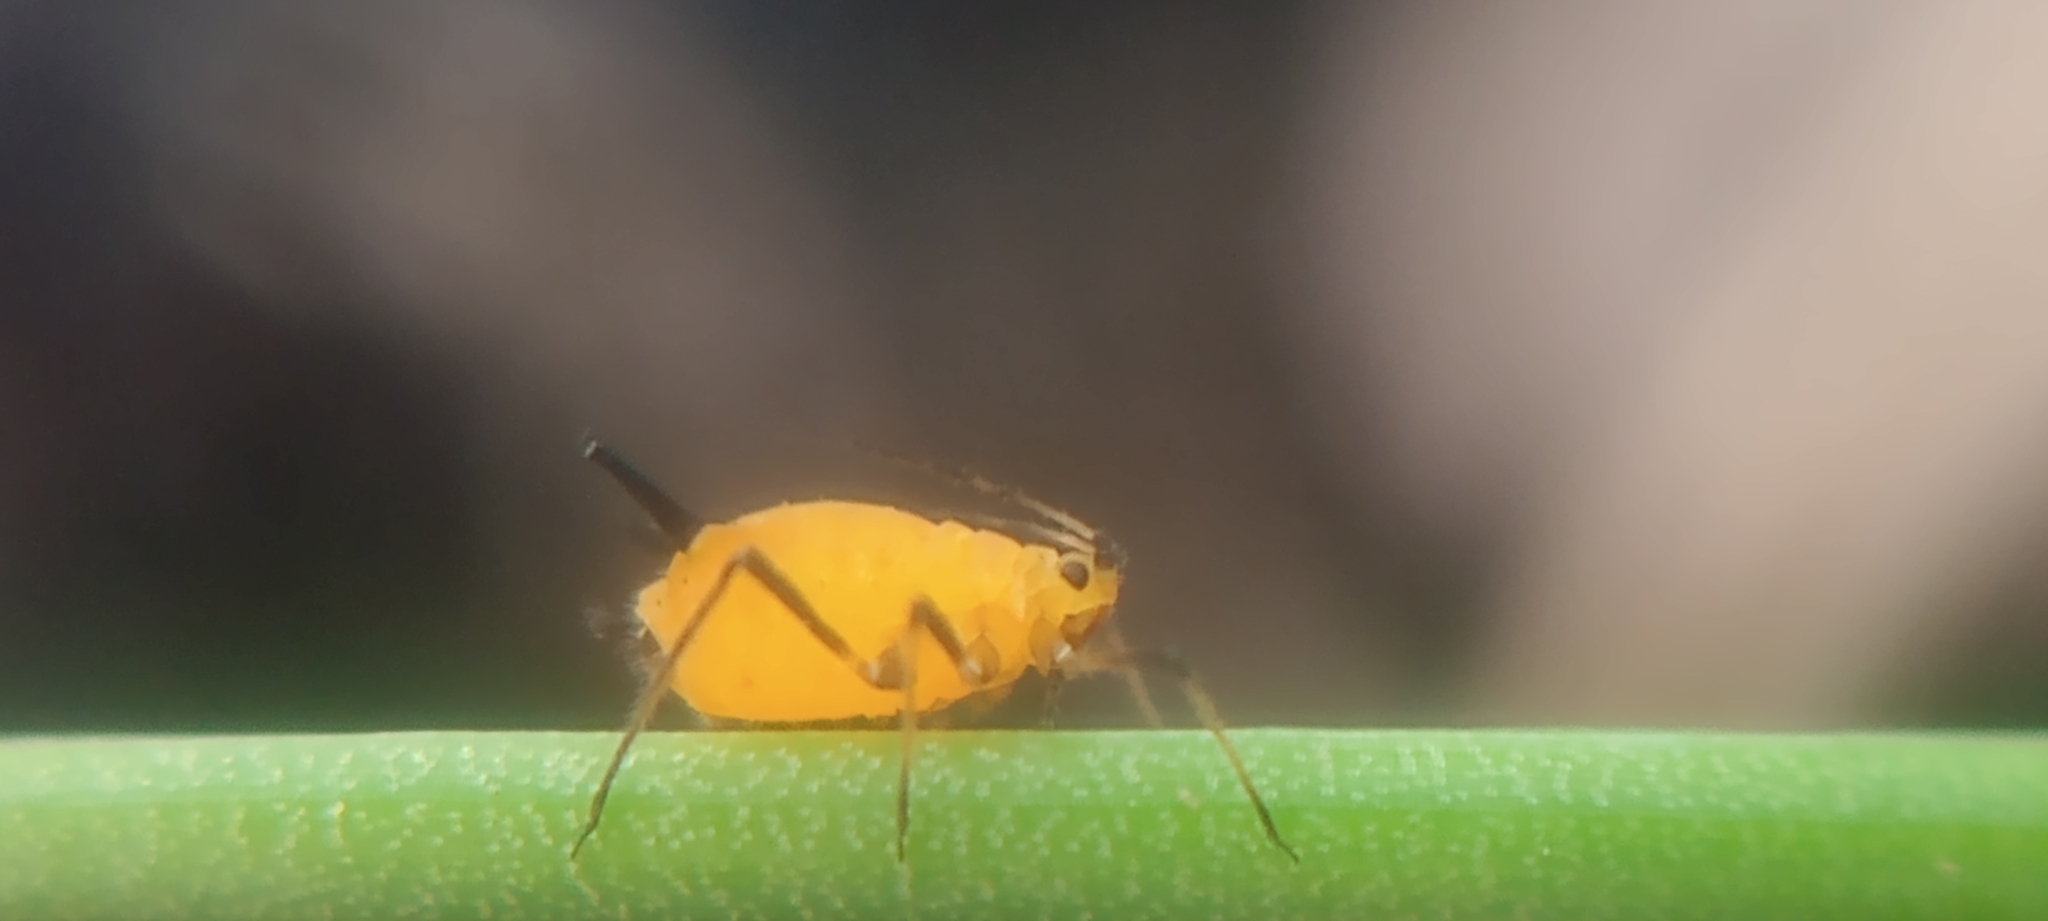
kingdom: Animalia
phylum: Arthropoda
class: Insecta
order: Hemiptera
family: Aphididae
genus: Aphis
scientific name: Aphis nerii
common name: Oleander aphid
